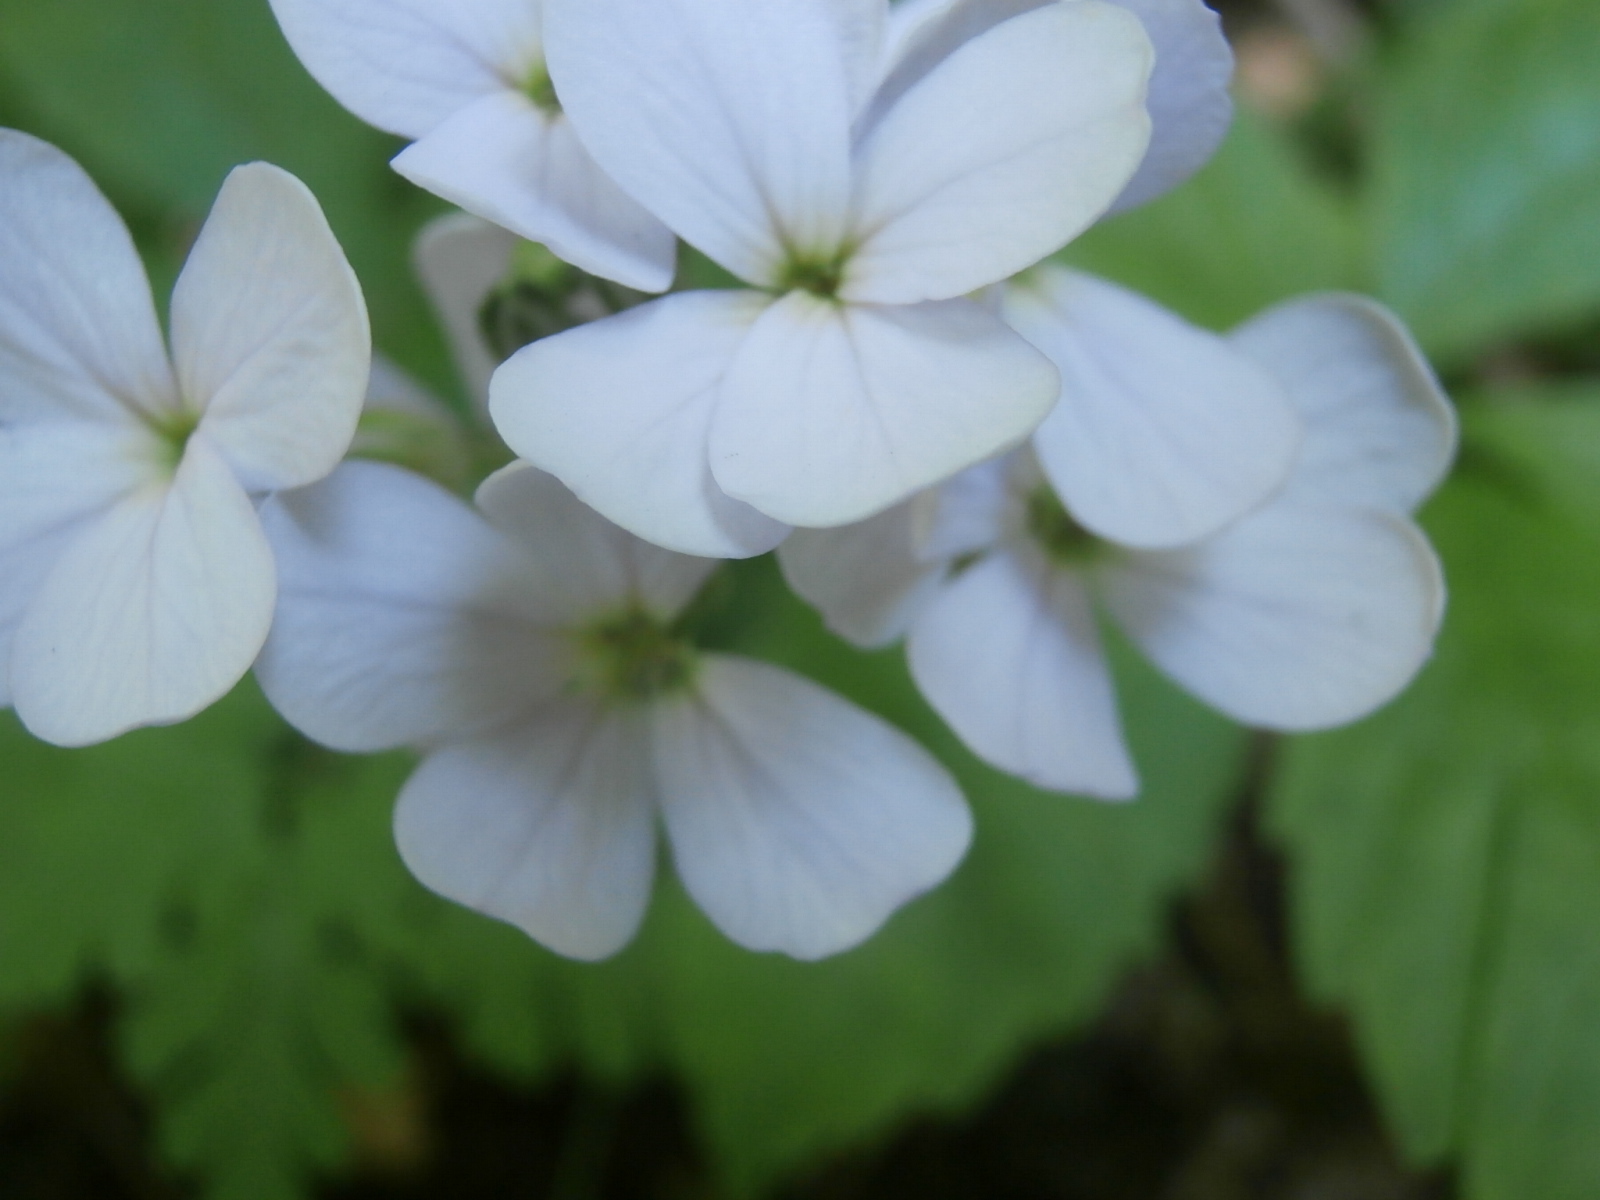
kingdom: Plantae
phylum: Tracheophyta
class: Magnoliopsida
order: Brassicales
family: Brassicaceae
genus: Hesperis
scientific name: Hesperis matronalis
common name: Dame's-violet
